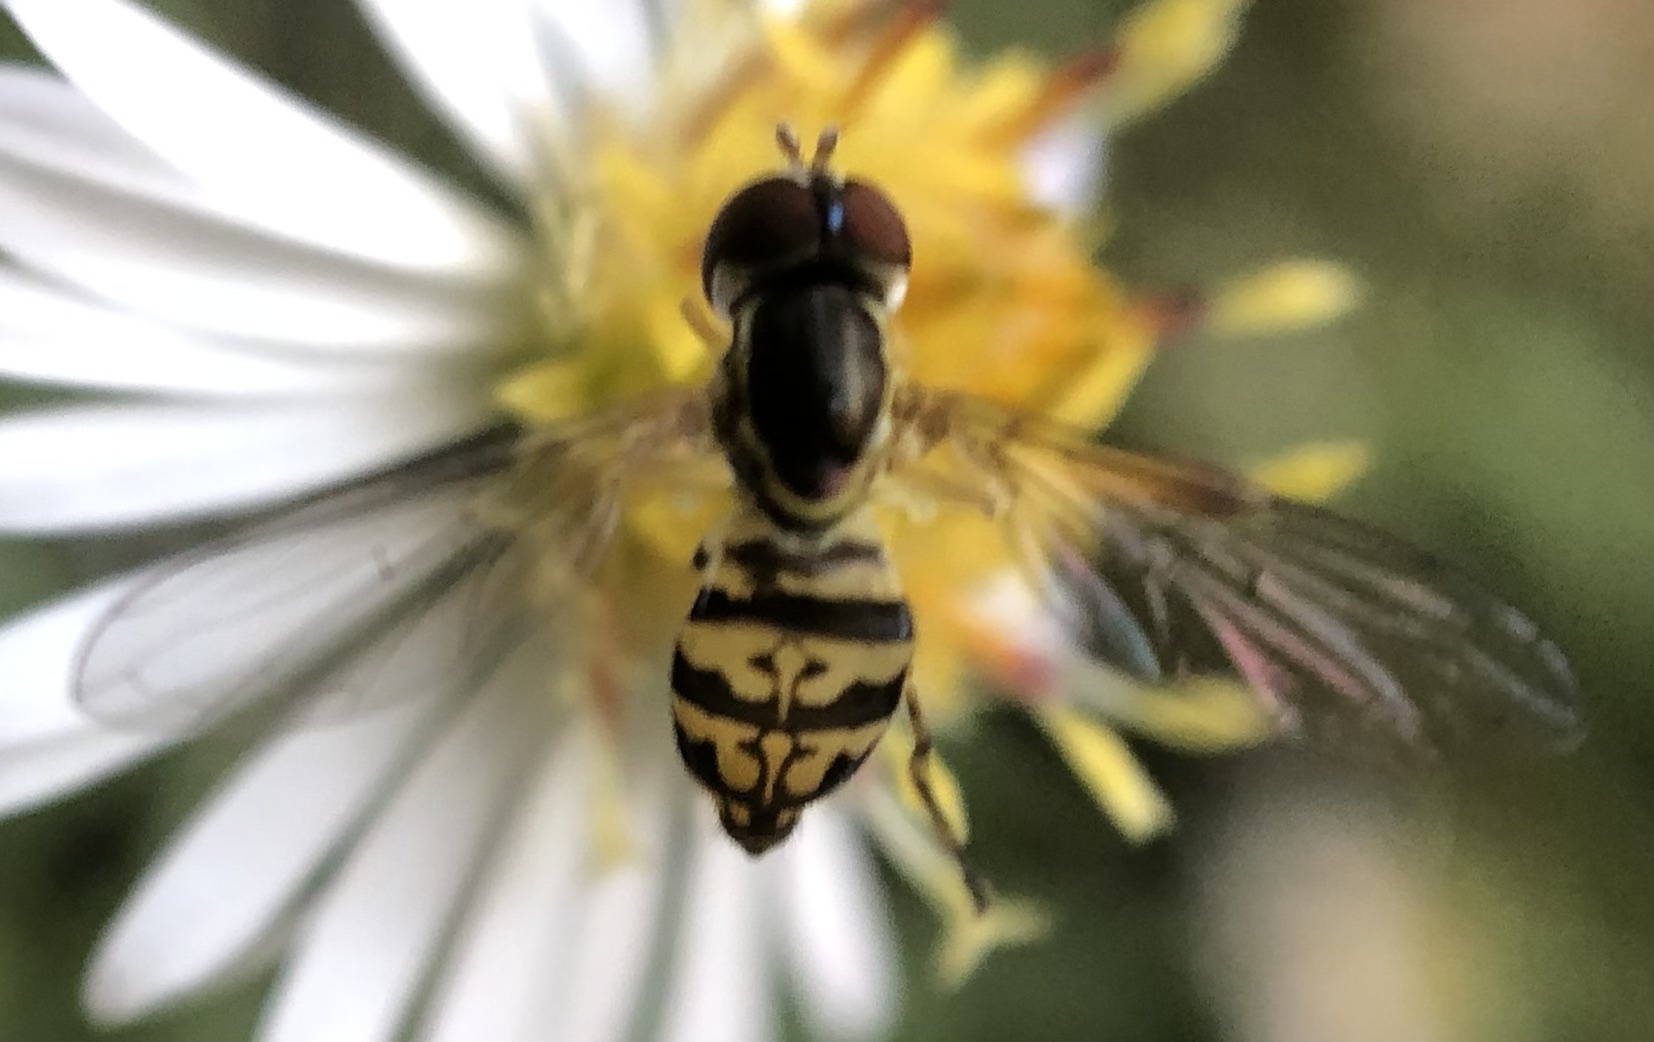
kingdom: Animalia
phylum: Arthropoda
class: Insecta
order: Diptera
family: Syrphidae
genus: Toxomerus
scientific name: Toxomerus geminatus
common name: Eastern calligrapher
